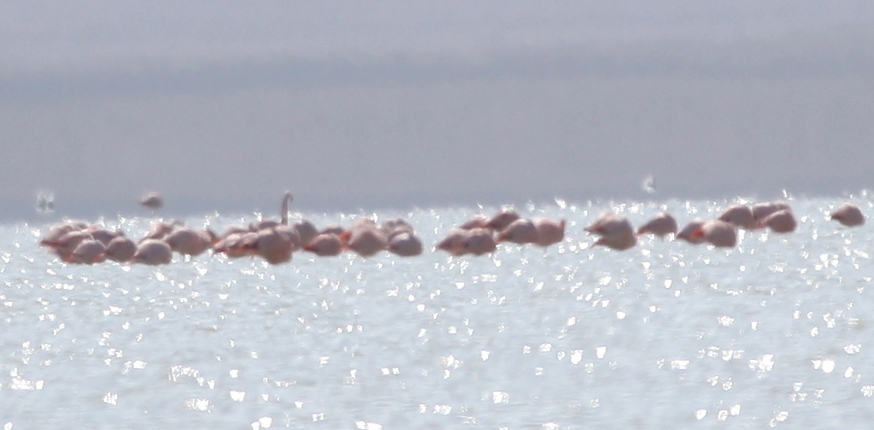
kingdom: Animalia
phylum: Chordata
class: Aves
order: Phoenicopteriformes
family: Phoenicopteridae
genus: Phoenicopterus
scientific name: Phoenicopterus chilensis
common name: Chilean flamingo
